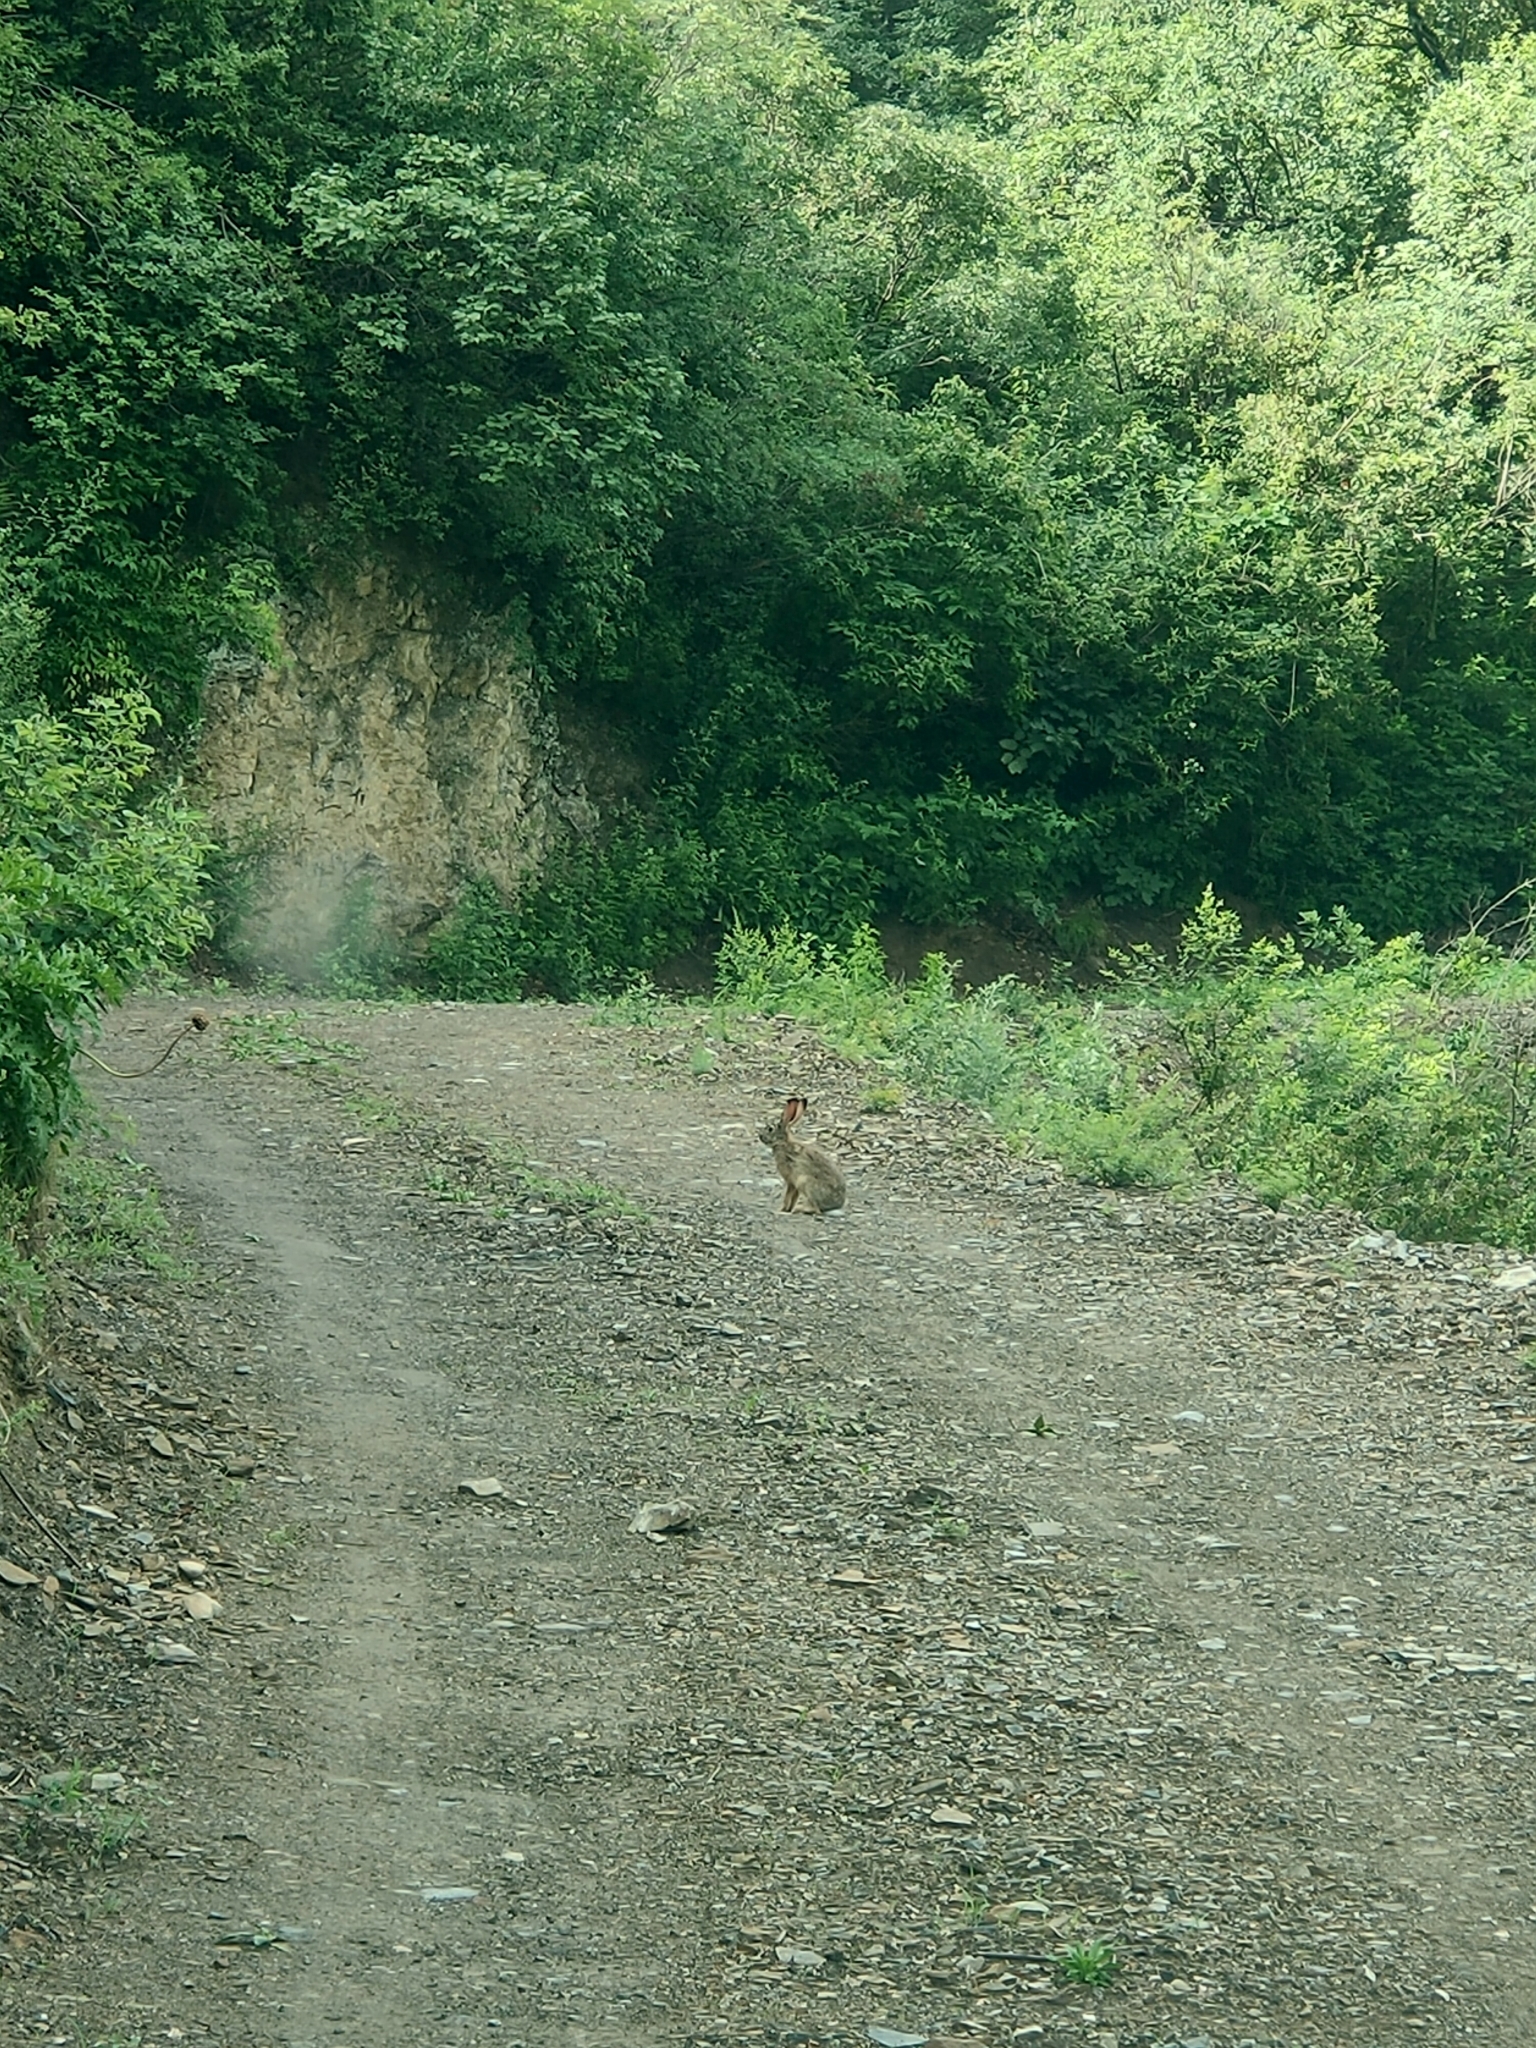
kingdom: Animalia
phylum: Chordata
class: Mammalia
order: Lagomorpha
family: Leporidae
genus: Lepus
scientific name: Lepus tolai
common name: Tolai hare
